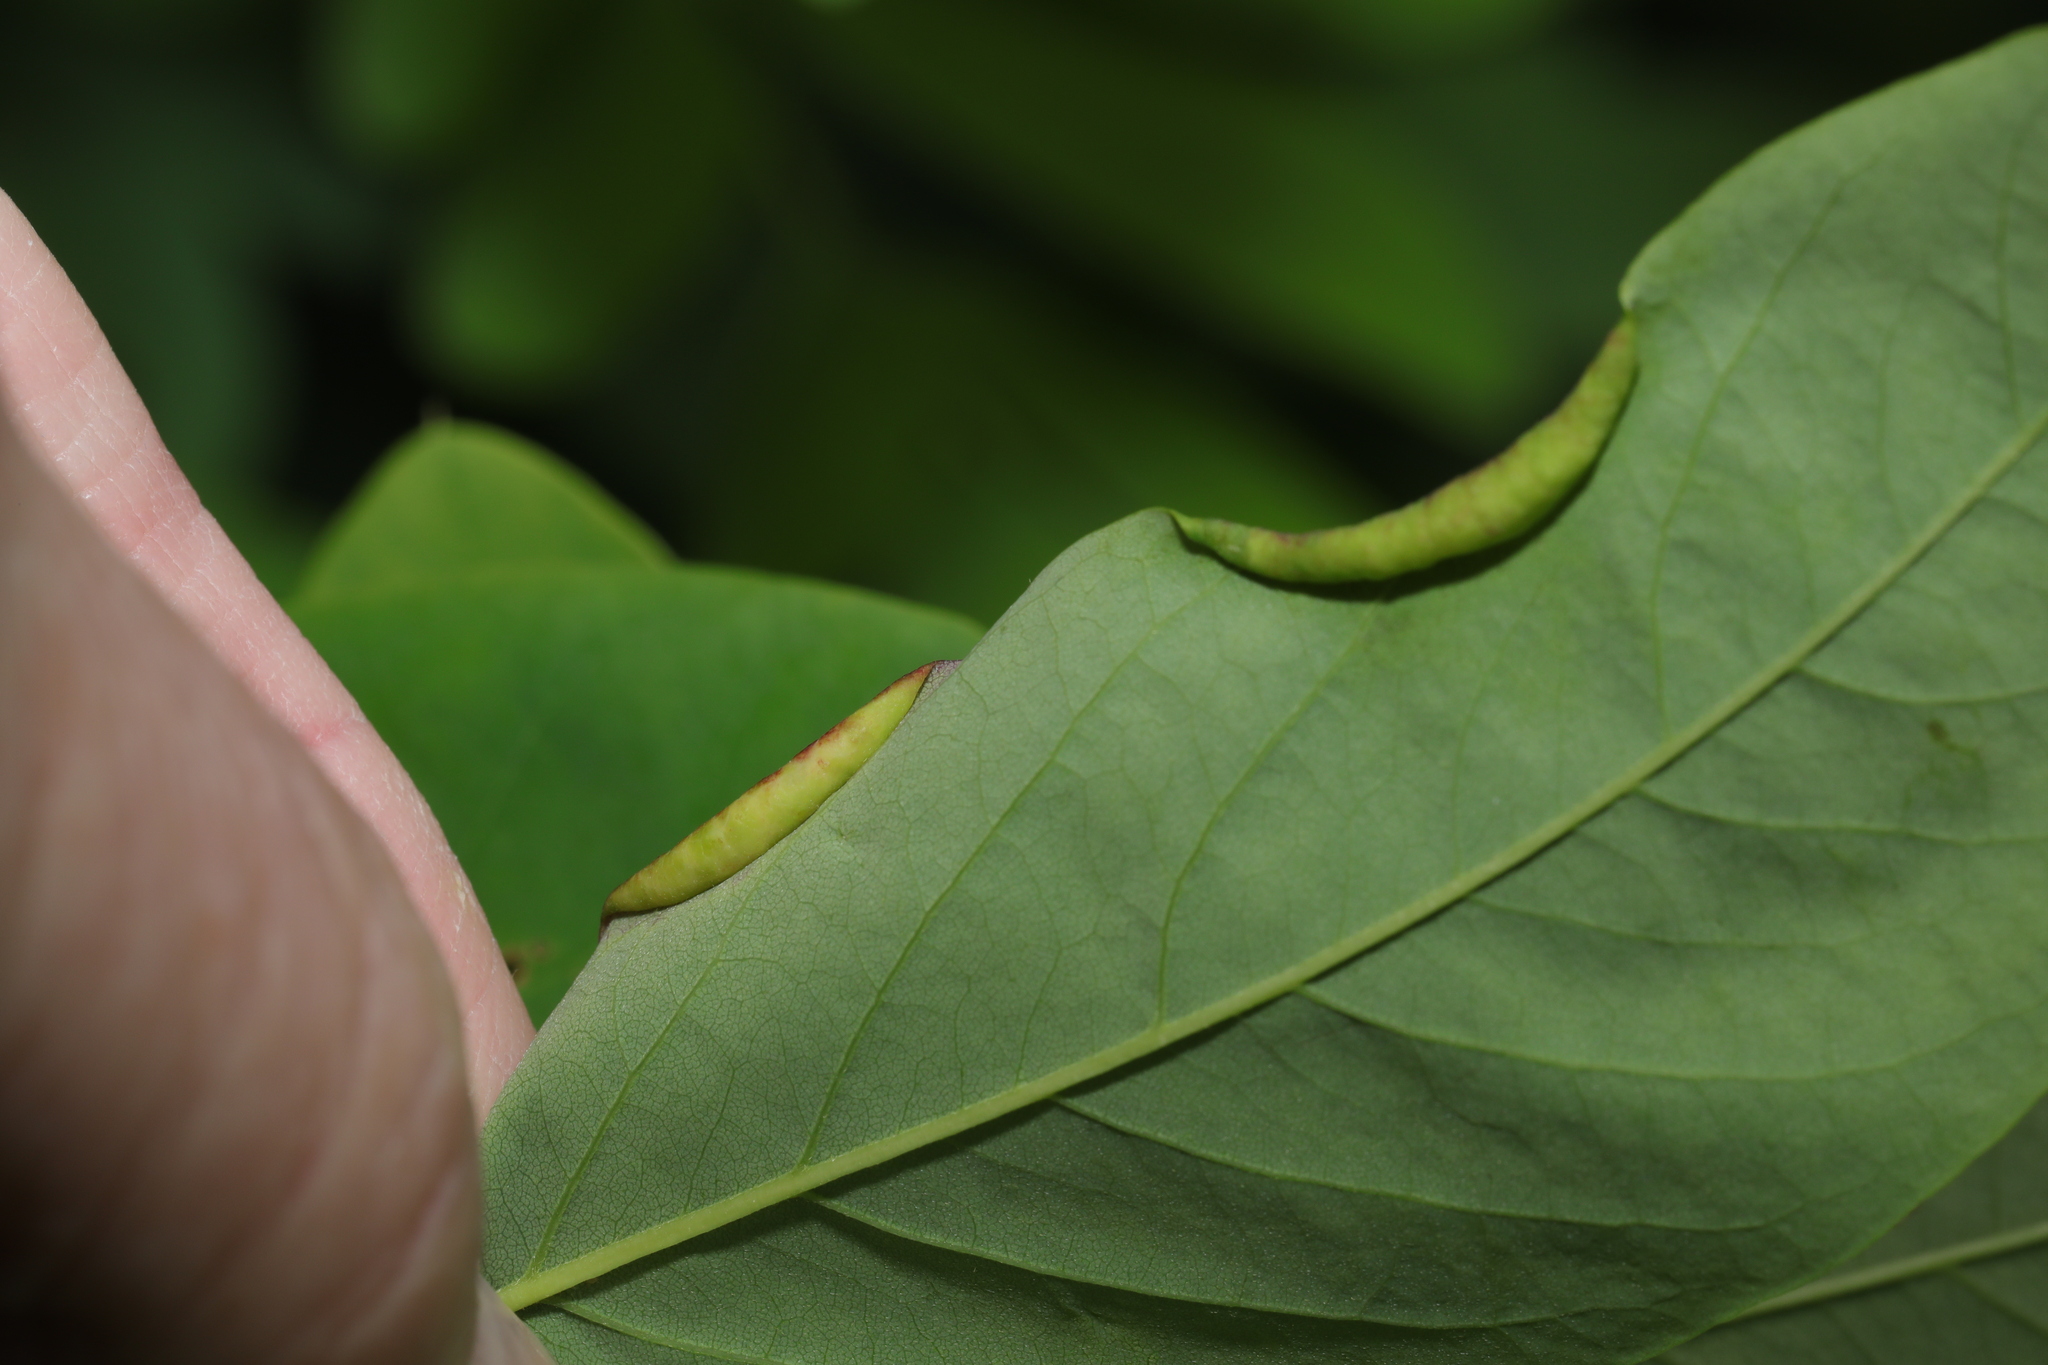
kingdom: Animalia
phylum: Arthropoda
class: Insecta
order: Diptera
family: Cecidomyiidae
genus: Obolodiplosis
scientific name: Obolodiplosis robiniae
